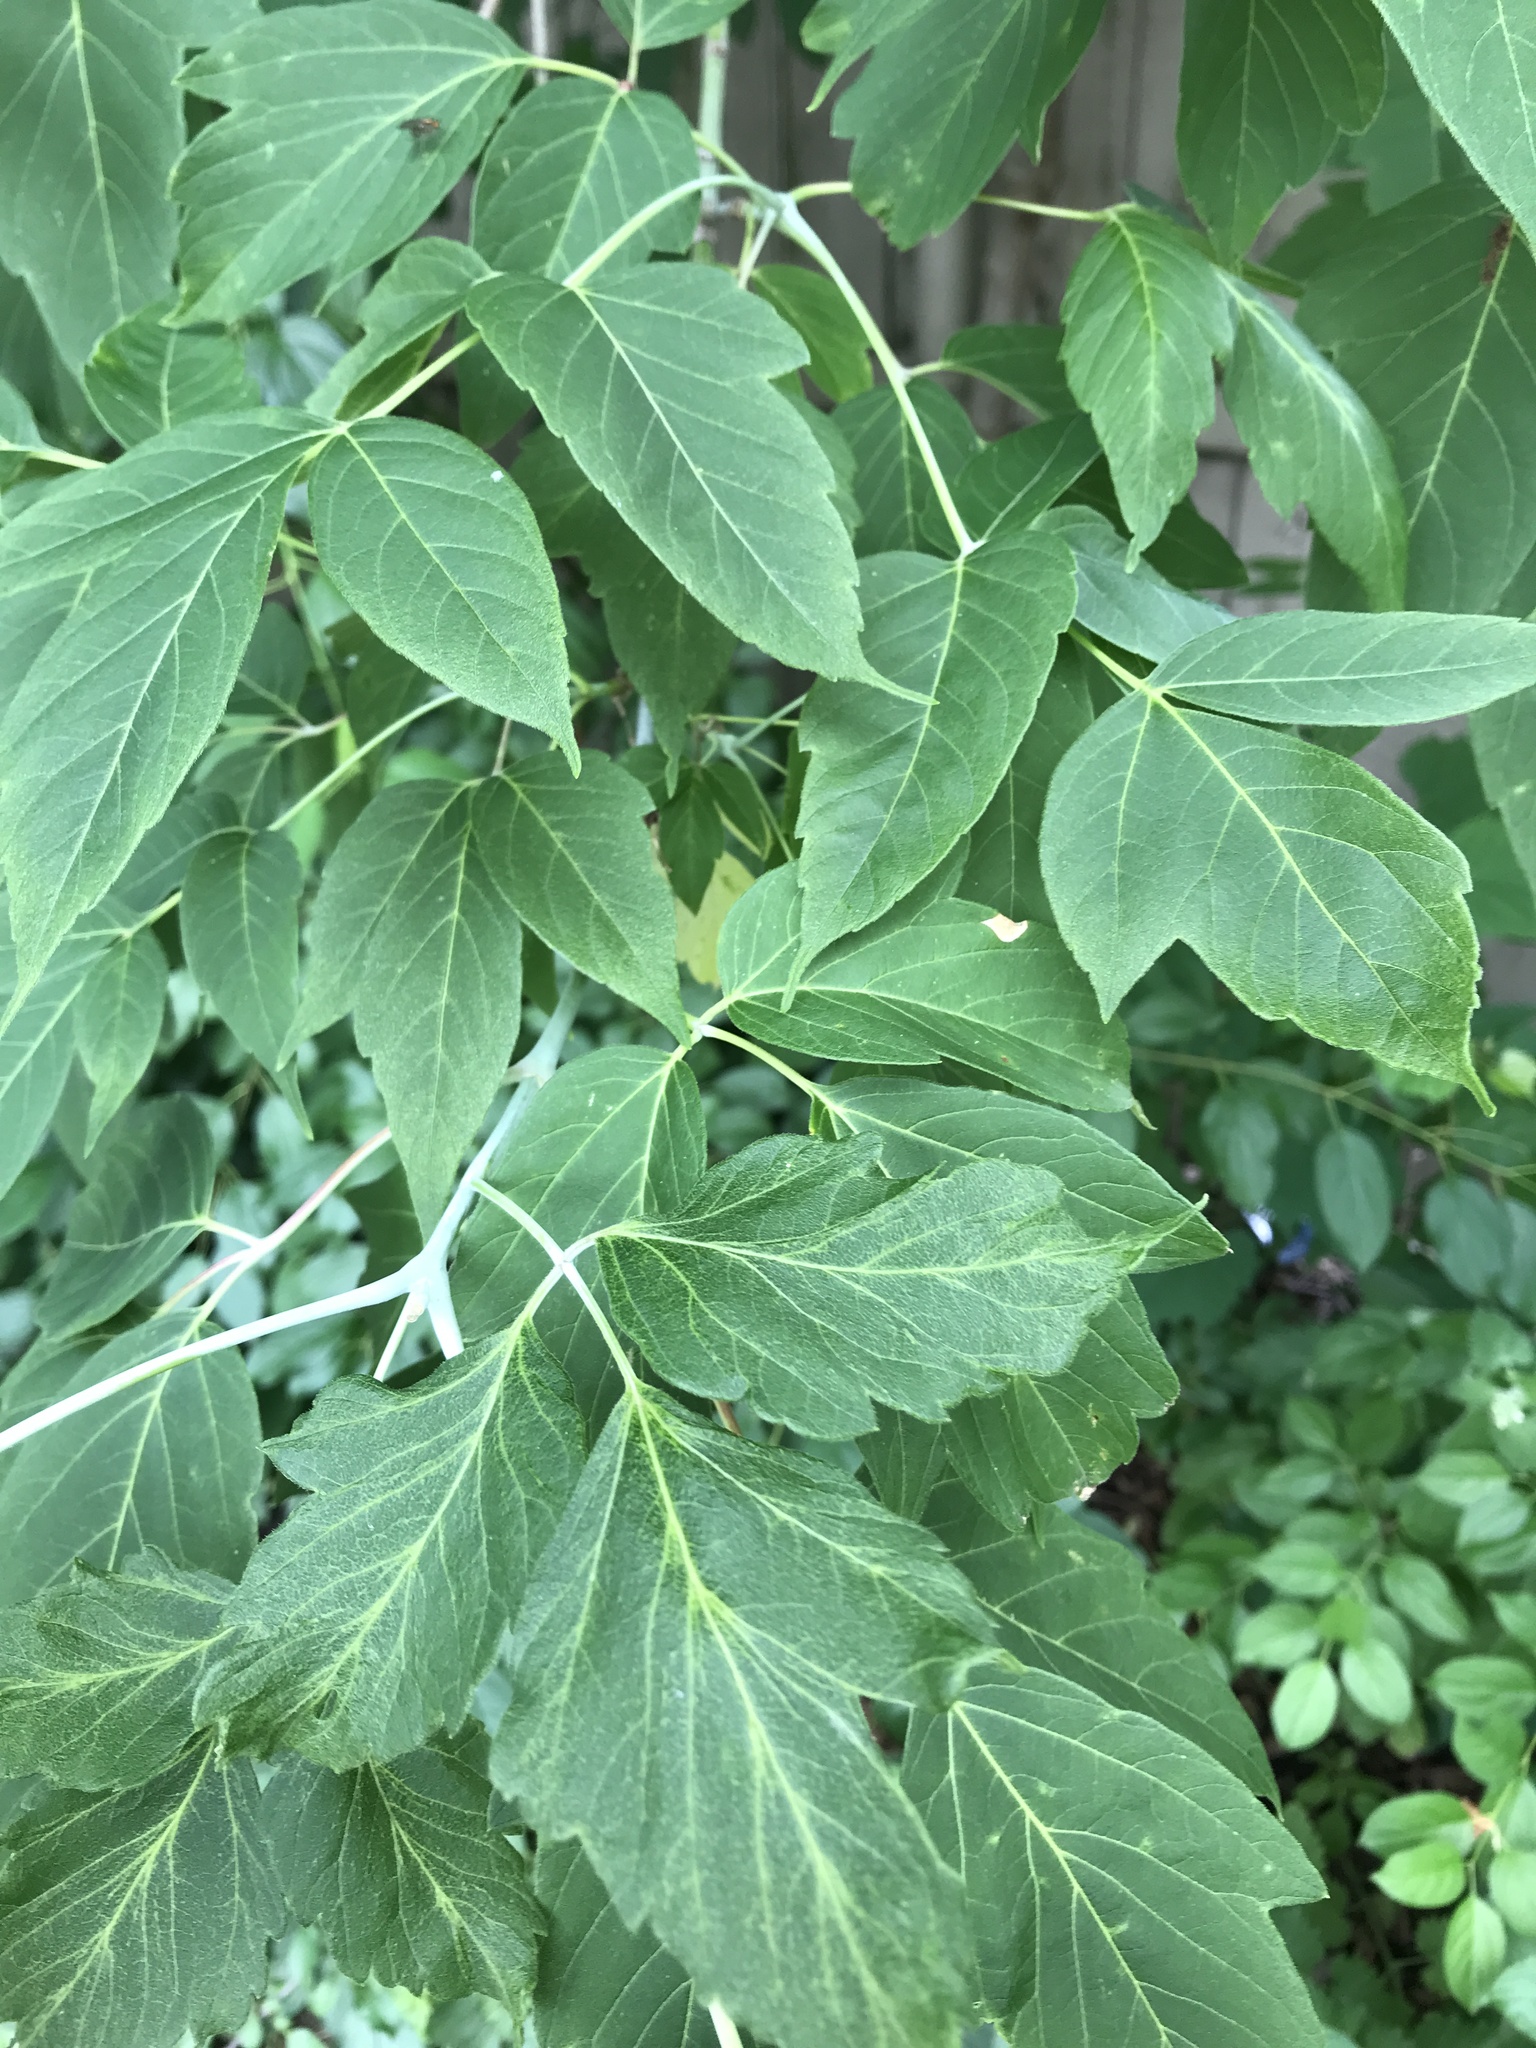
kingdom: Plantae
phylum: Tracheophyta
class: Magnoliopsida
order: Sapindales
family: Sapindaceae
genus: Acer
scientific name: Acer negundo
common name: Ashleaf maple
